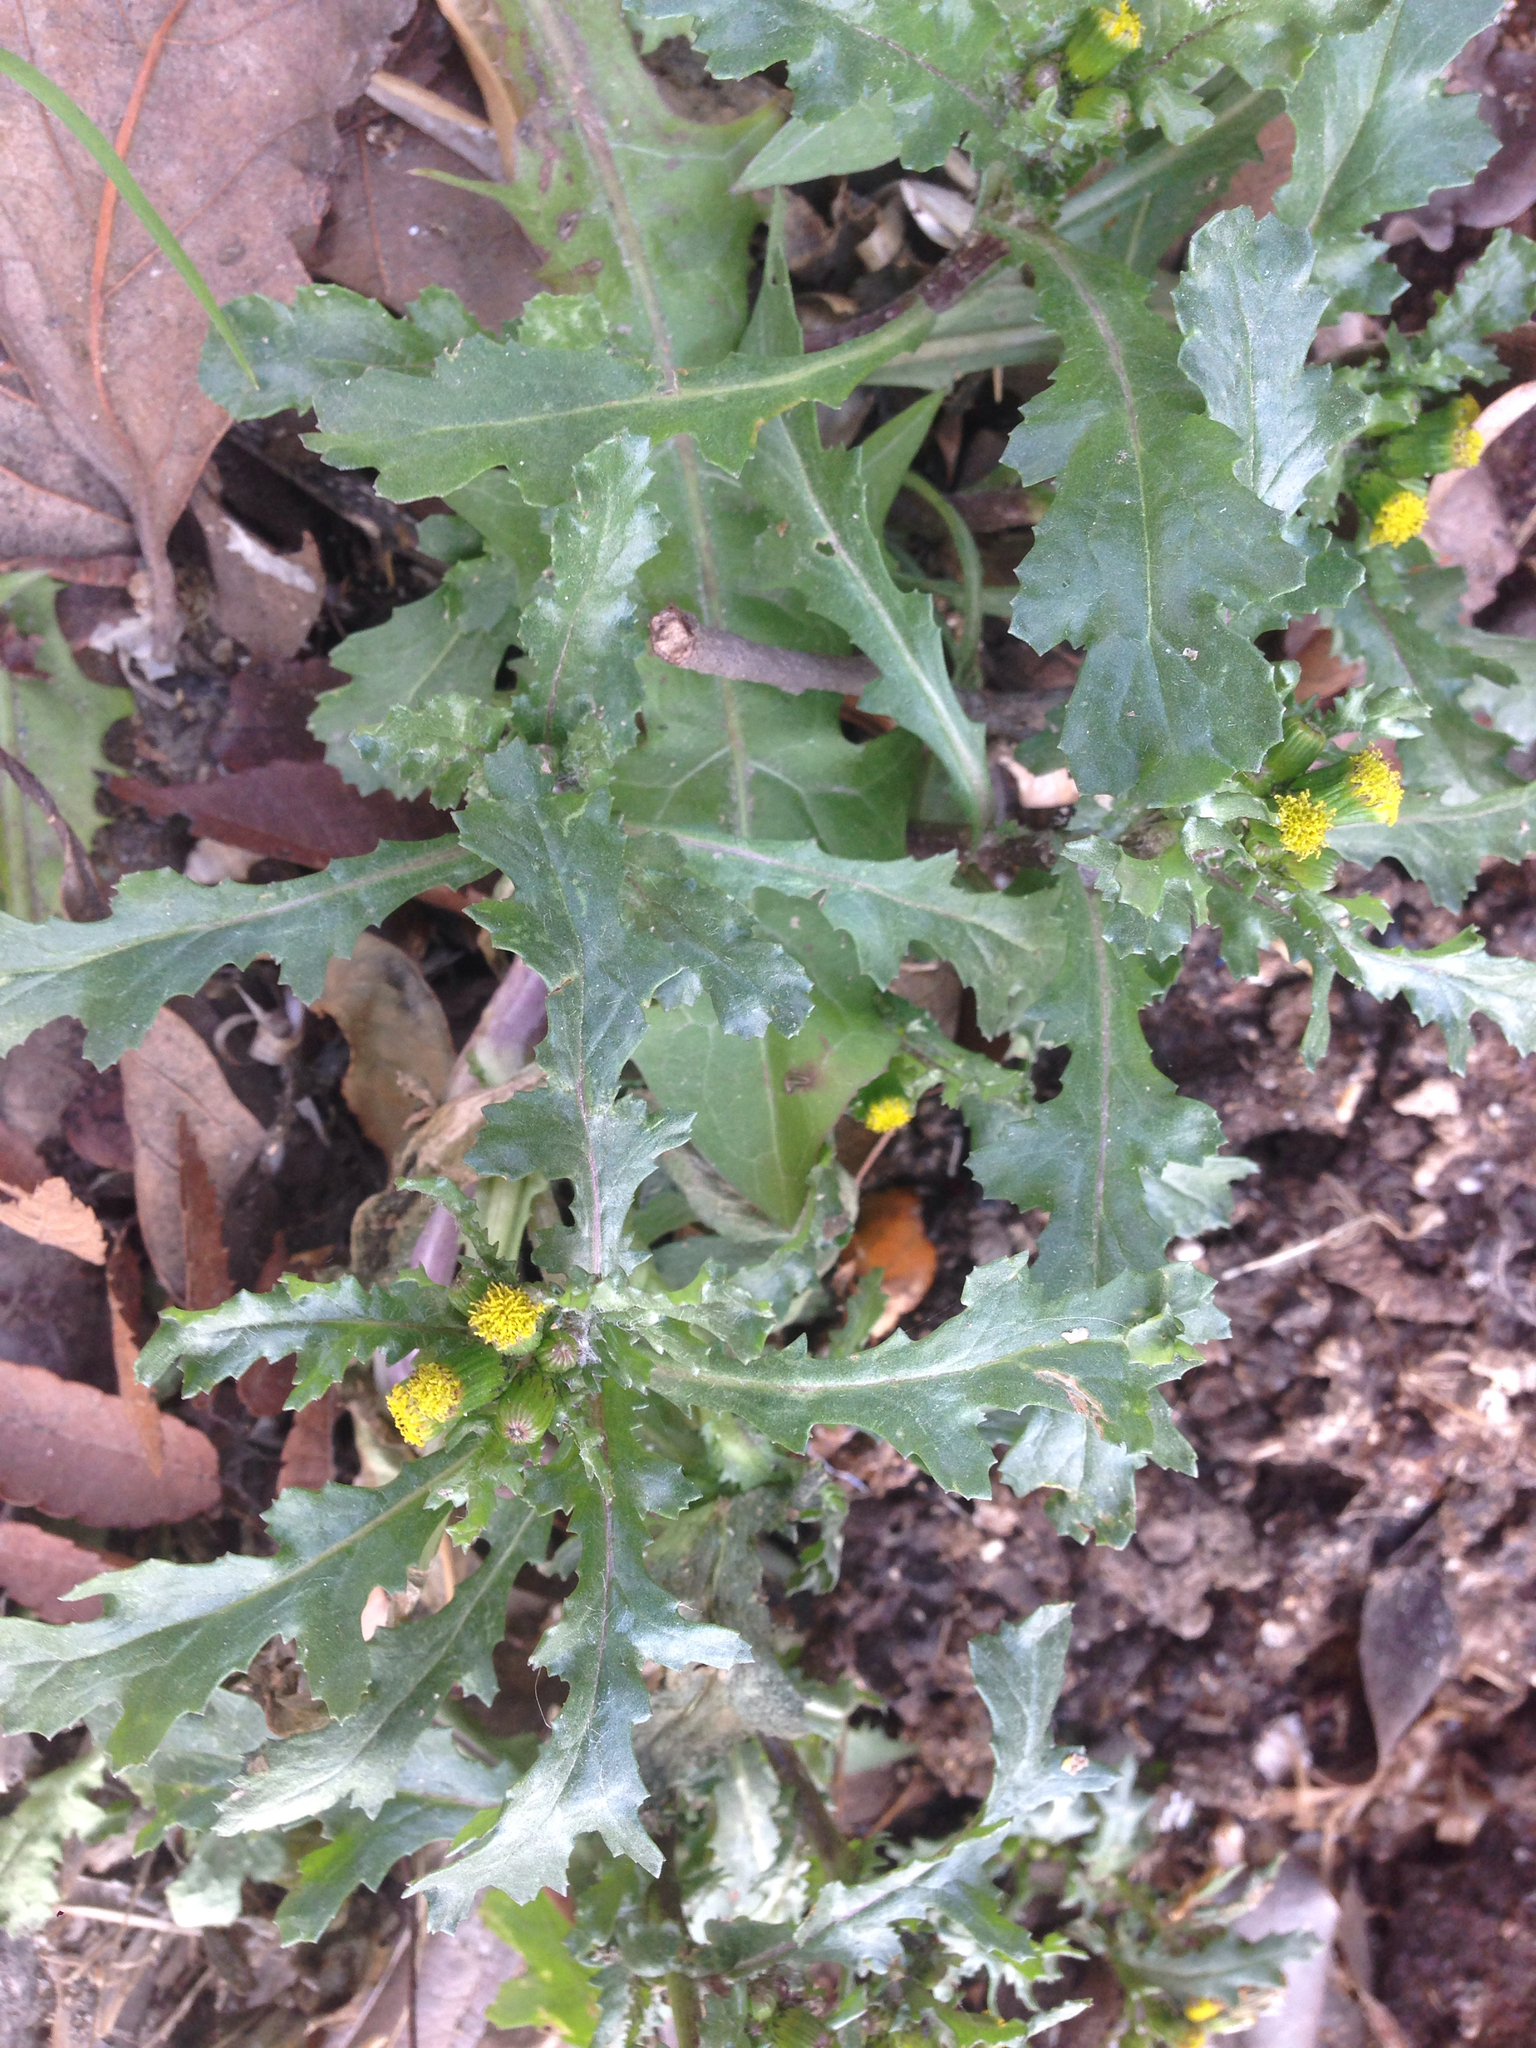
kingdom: Plantae
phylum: Tracheophyta
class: Magnoliopsida
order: Asterales
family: Asteraceae
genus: Senecio
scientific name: Senecio vulgaris
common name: Old-man-in-the-spring
